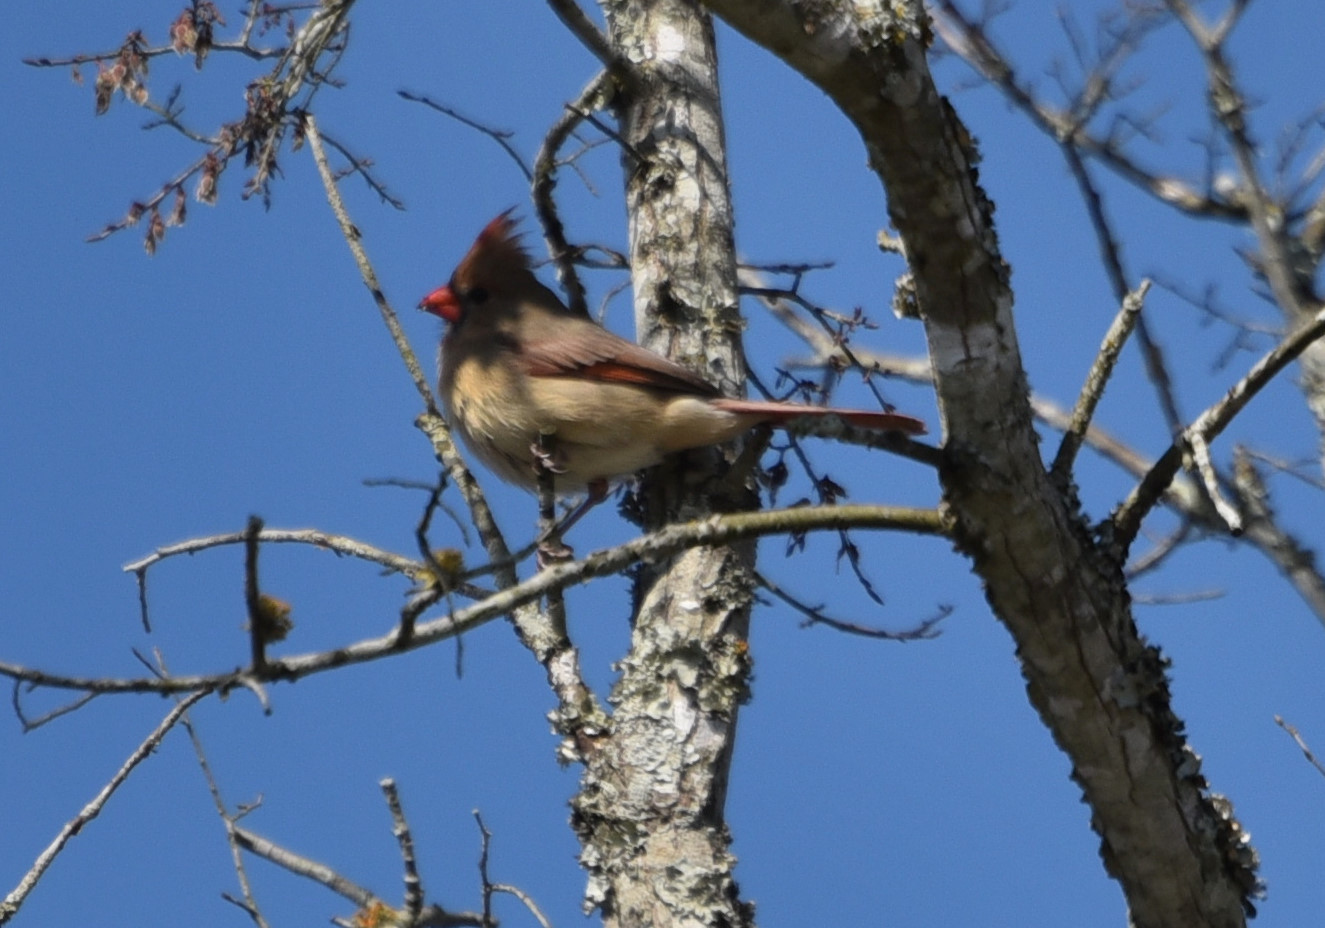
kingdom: Animalia
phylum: Chordata
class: Aves
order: Passeriformes
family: Cardinalidae
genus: Cardinalis
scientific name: Cardinalis cardinalis
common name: Northern cardinal
